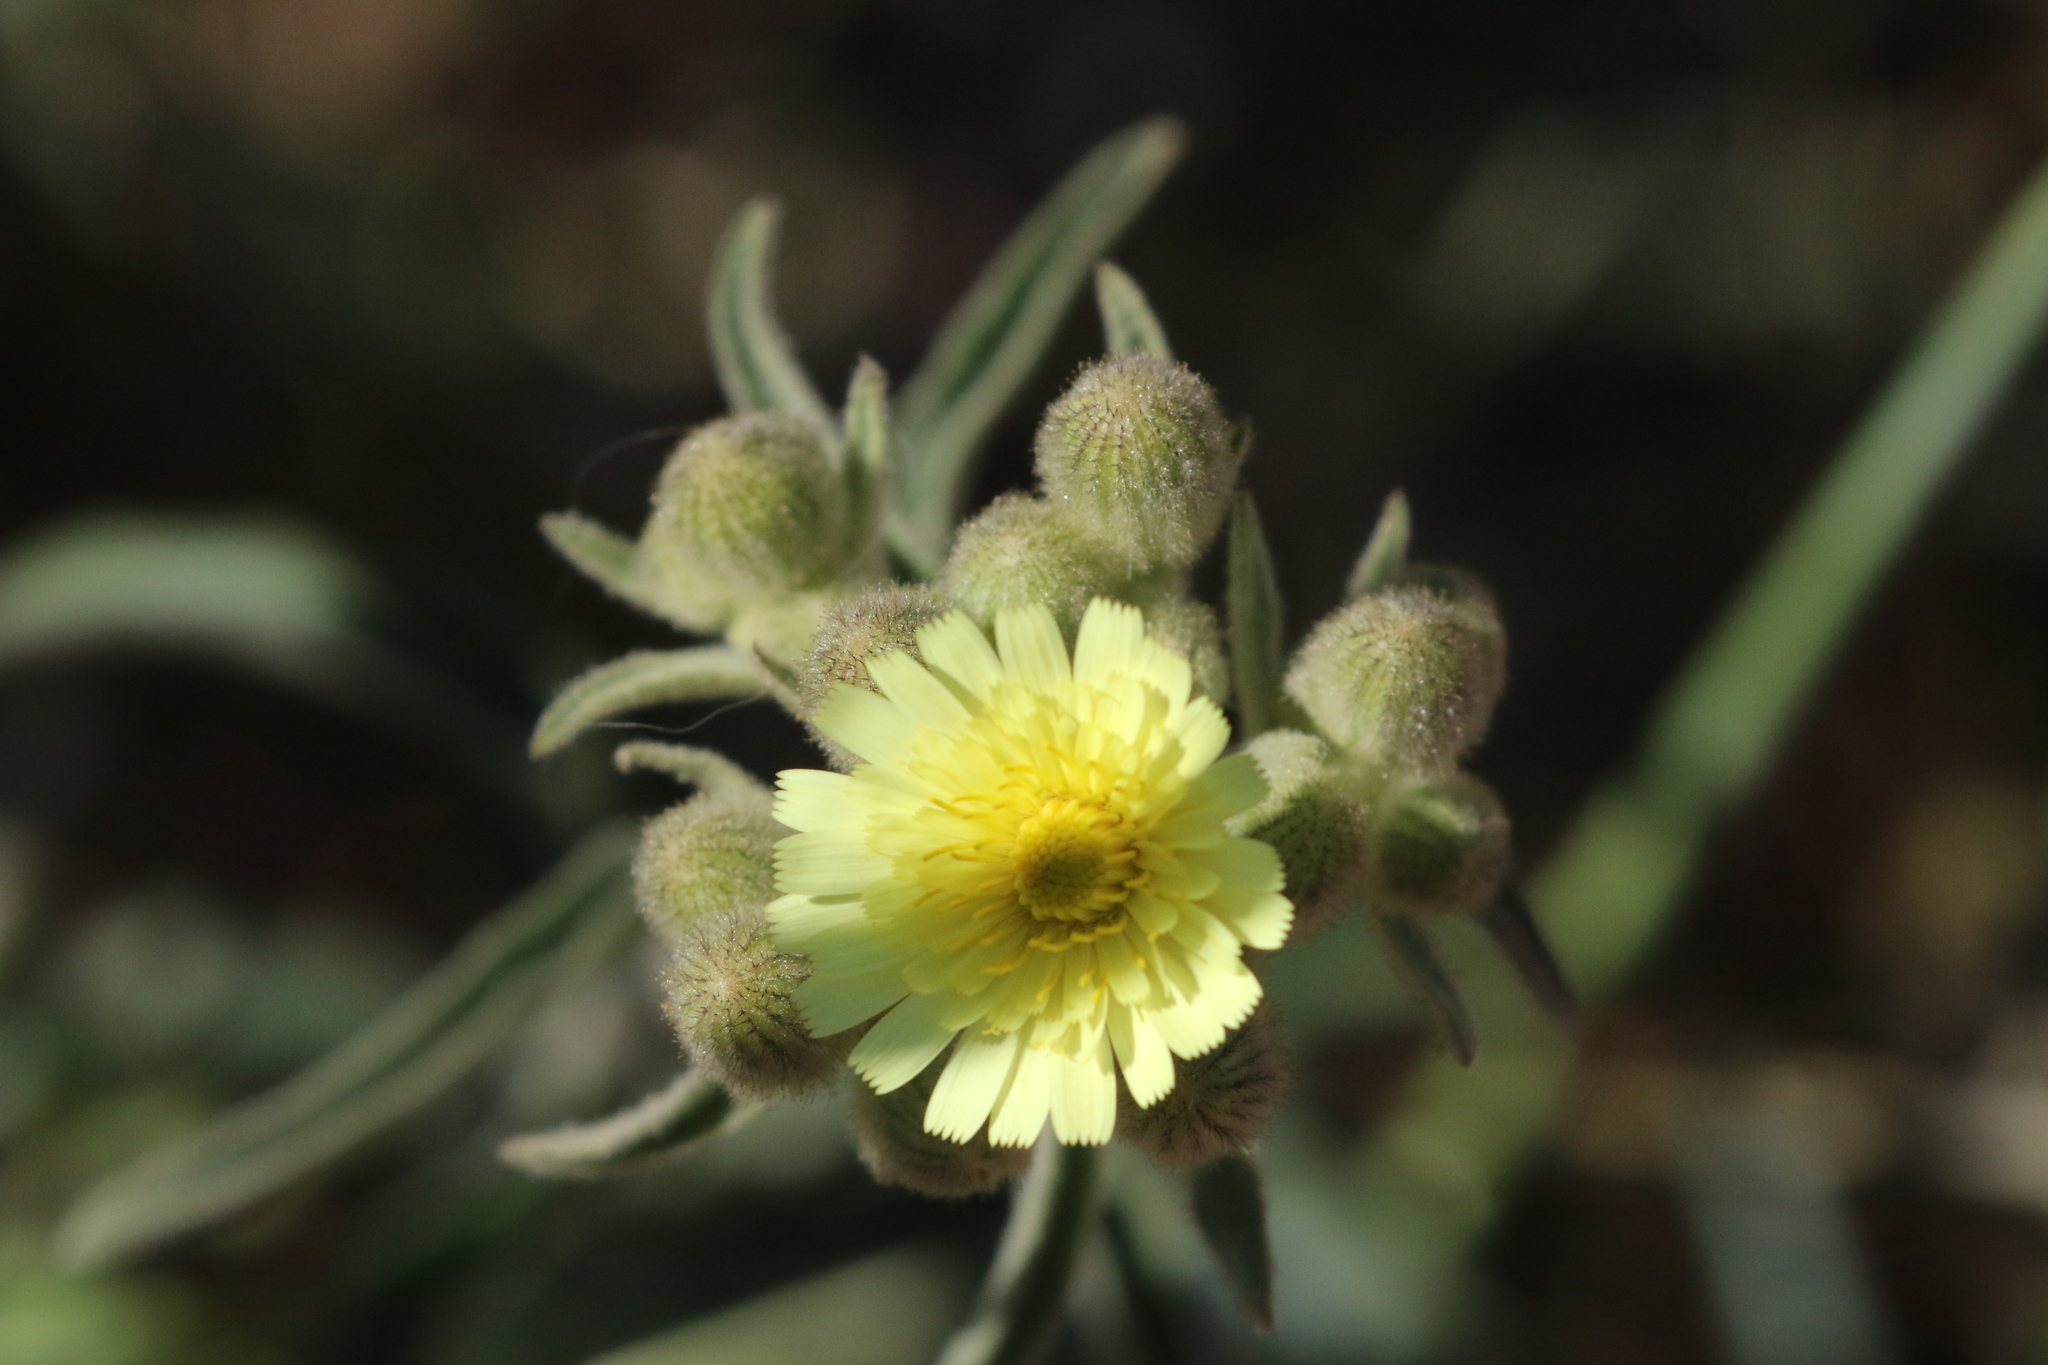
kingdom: Plantae
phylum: Tracheophyta
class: Magnoliopsida
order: Asterales
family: Asteraceae
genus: Andryala
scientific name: Andryala integrifolia
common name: Common andryala
